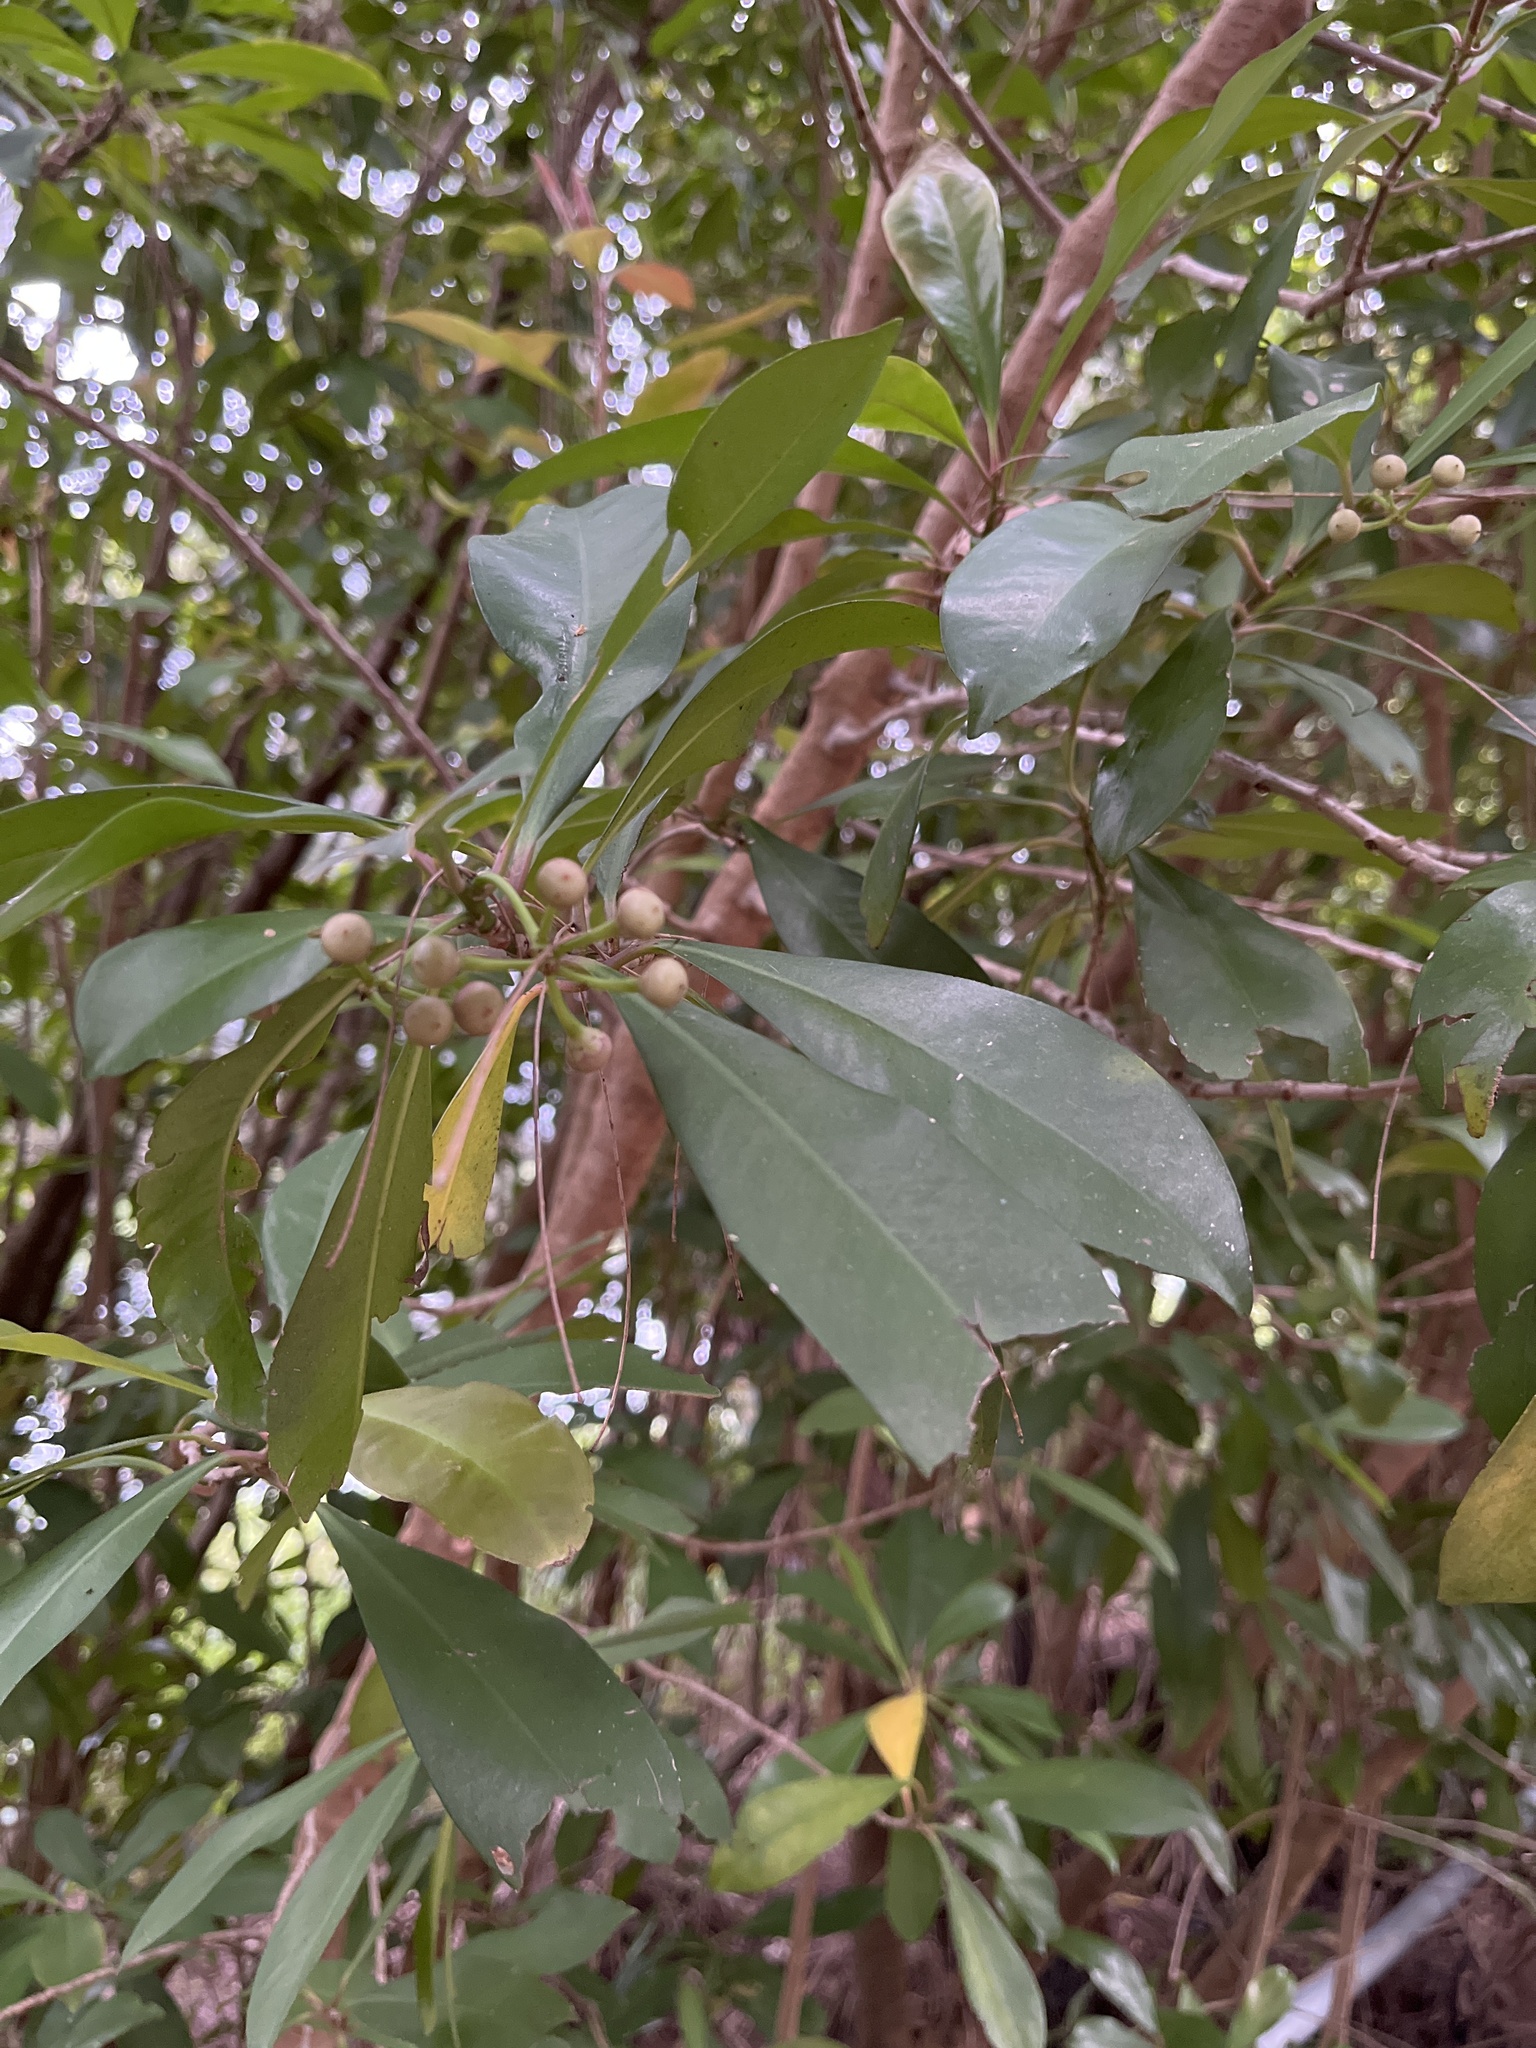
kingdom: Plantae
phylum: Tracheophyta
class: Magnoliopsida
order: Ericales
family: Primulaceae
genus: Ardisia
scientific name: Ardisia sieboldii
